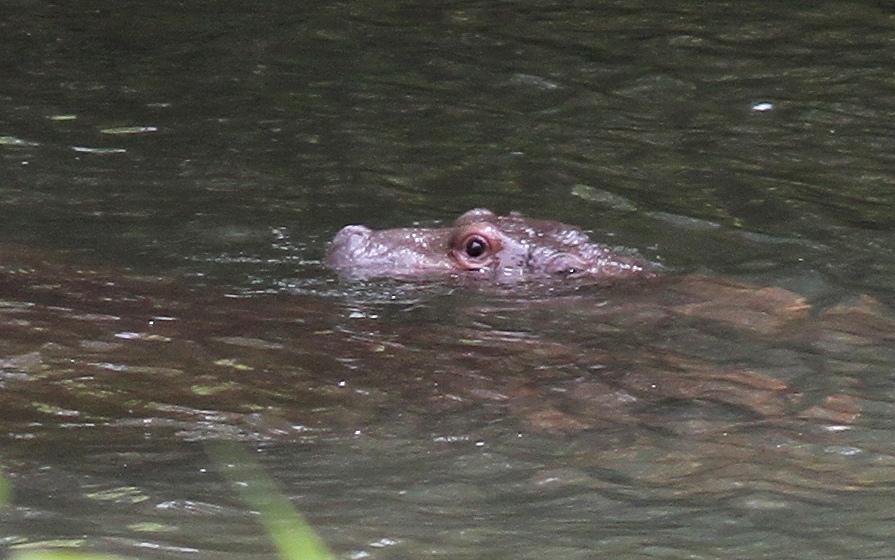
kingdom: Animalia
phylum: Chordata
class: Mammalia
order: Artiodactyla
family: Hippopotamidae
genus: Hippopotamus
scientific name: Hippopotamus amphibius
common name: Common hippopotamus
